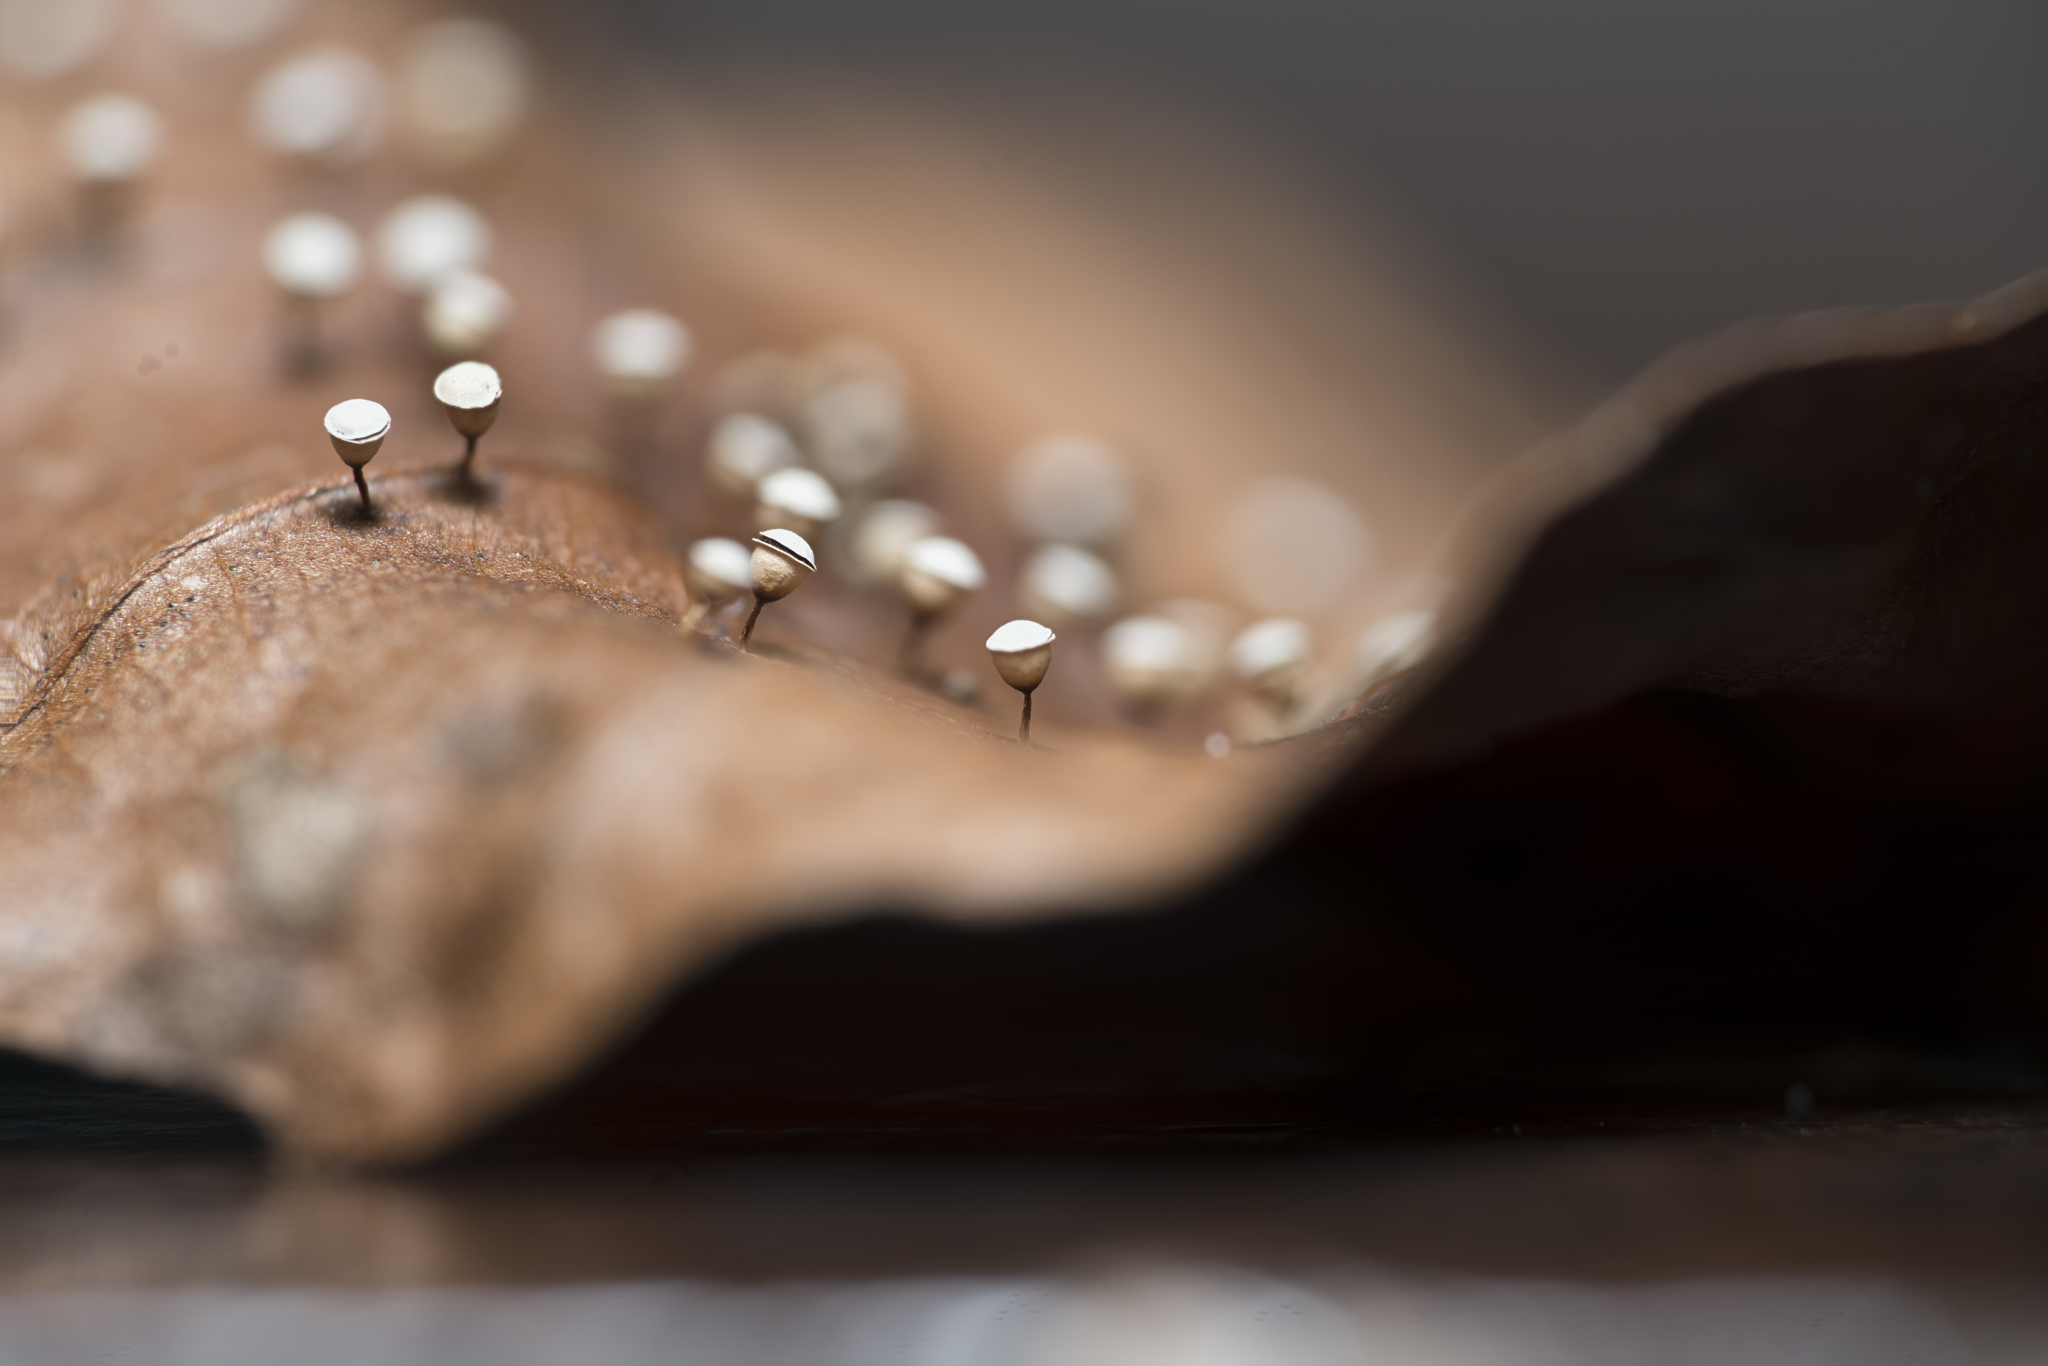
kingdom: Protozoa
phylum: Mycetozoa
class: Myxomycetes
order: Physarales
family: Physaraceae
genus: Craterium
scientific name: Craterium minutum
